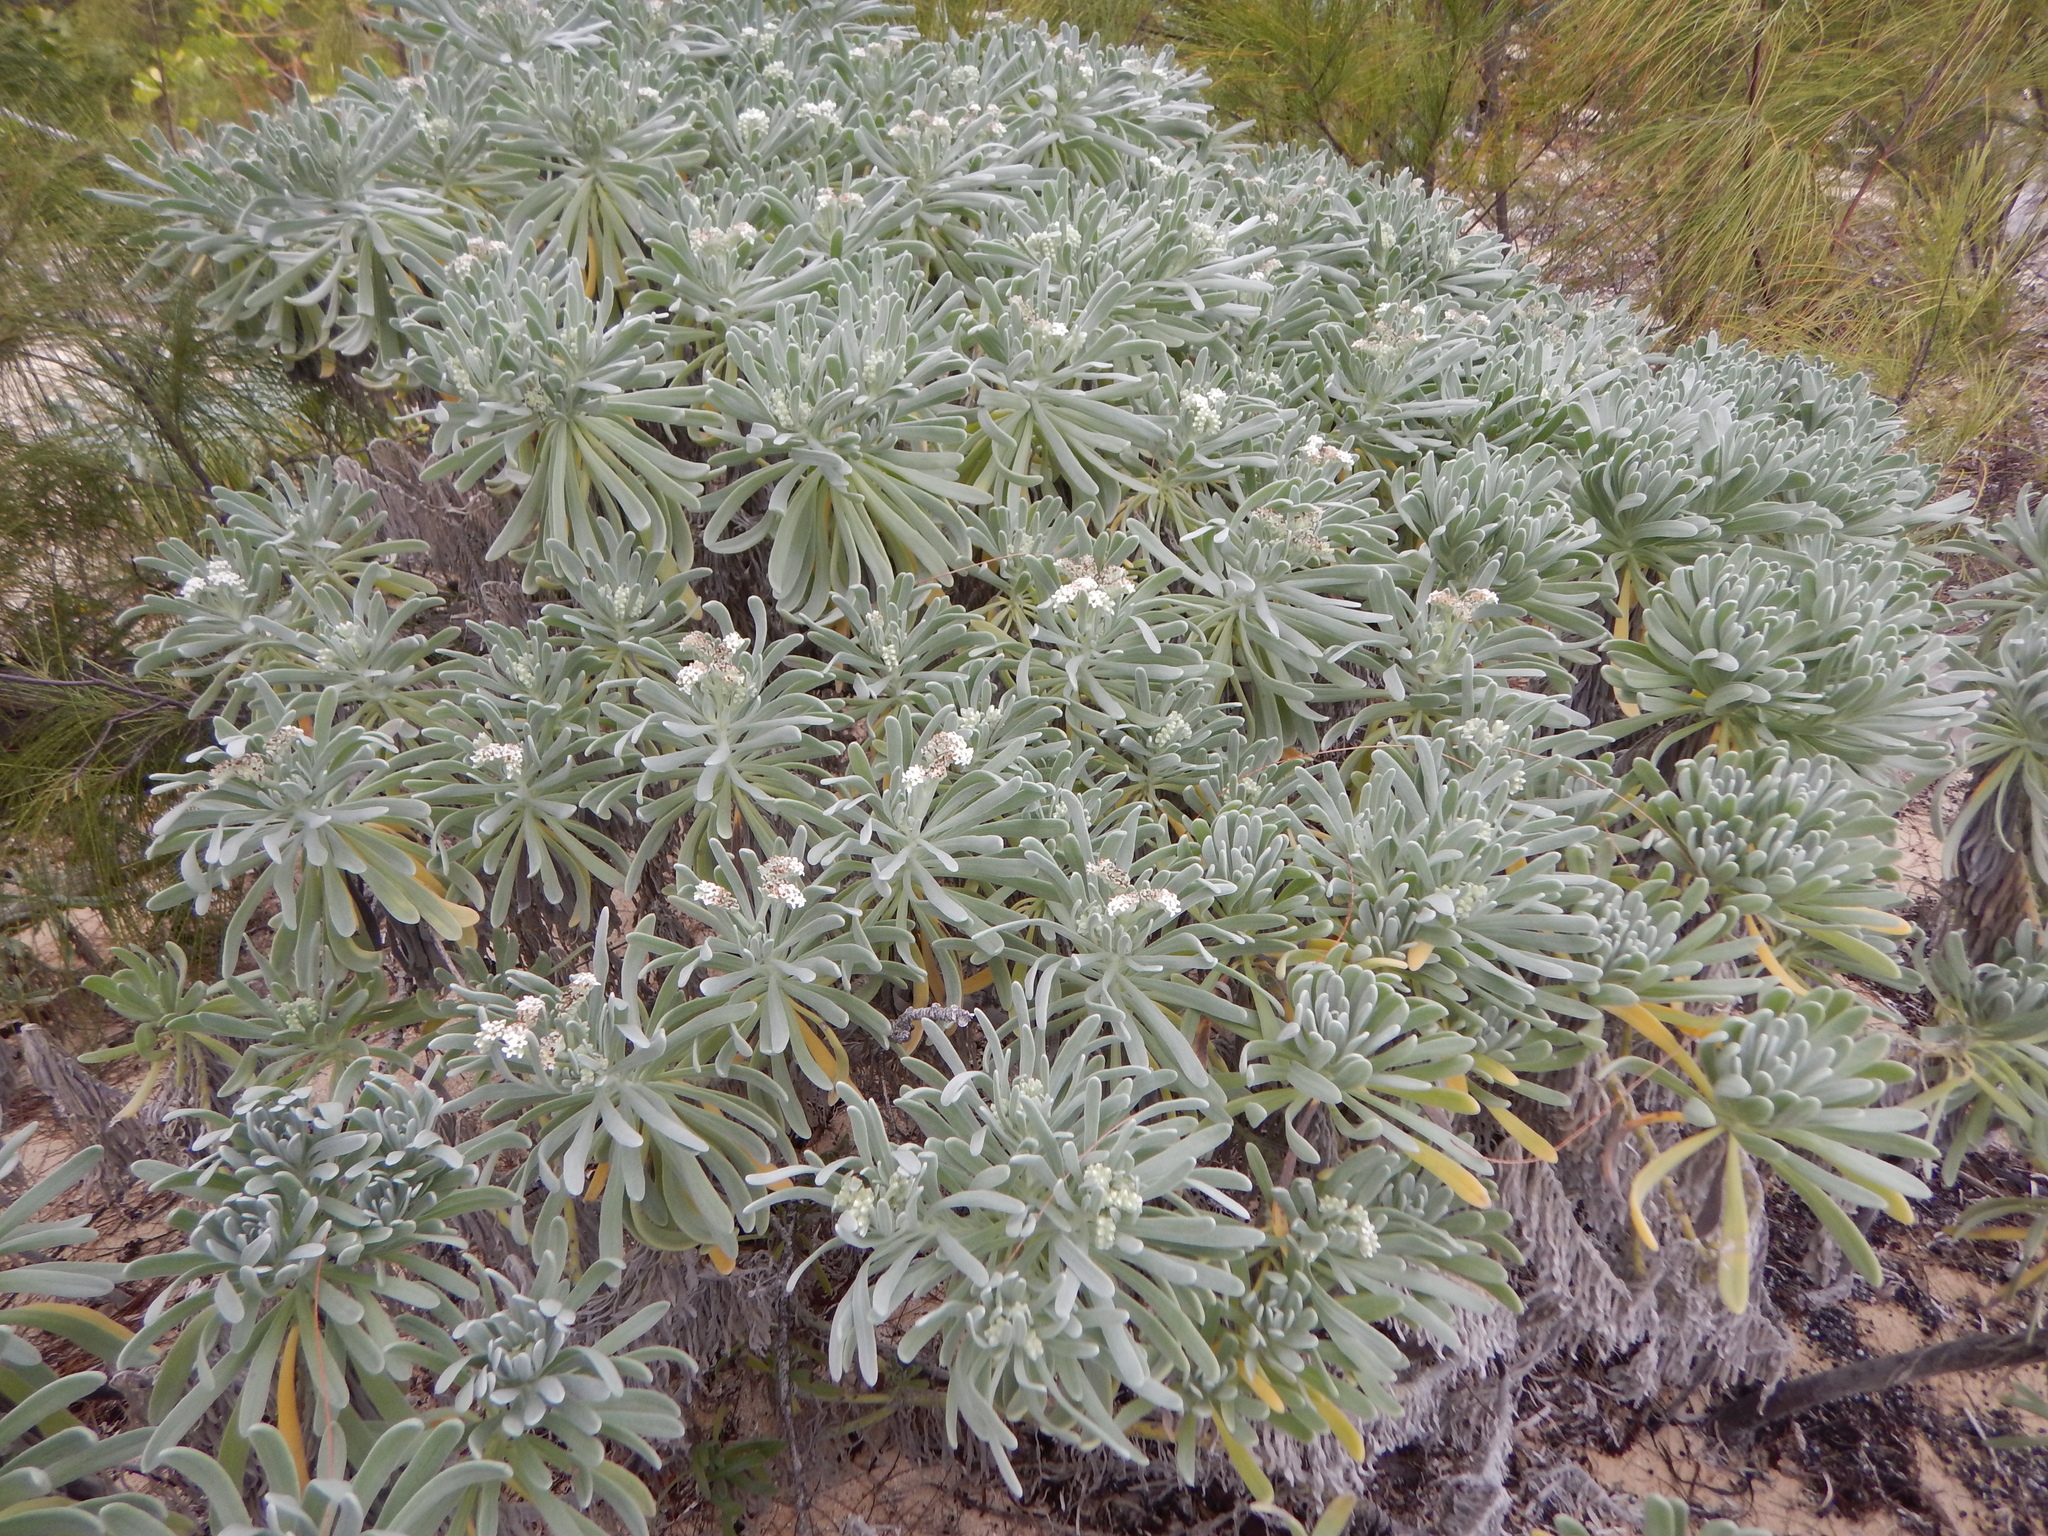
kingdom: Plantae
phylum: Tracheophyta
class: Magnoliopsida
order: Boraginales
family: Heliotropiaceae
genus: Tournefortia
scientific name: Tournefortia gnaphalodes
